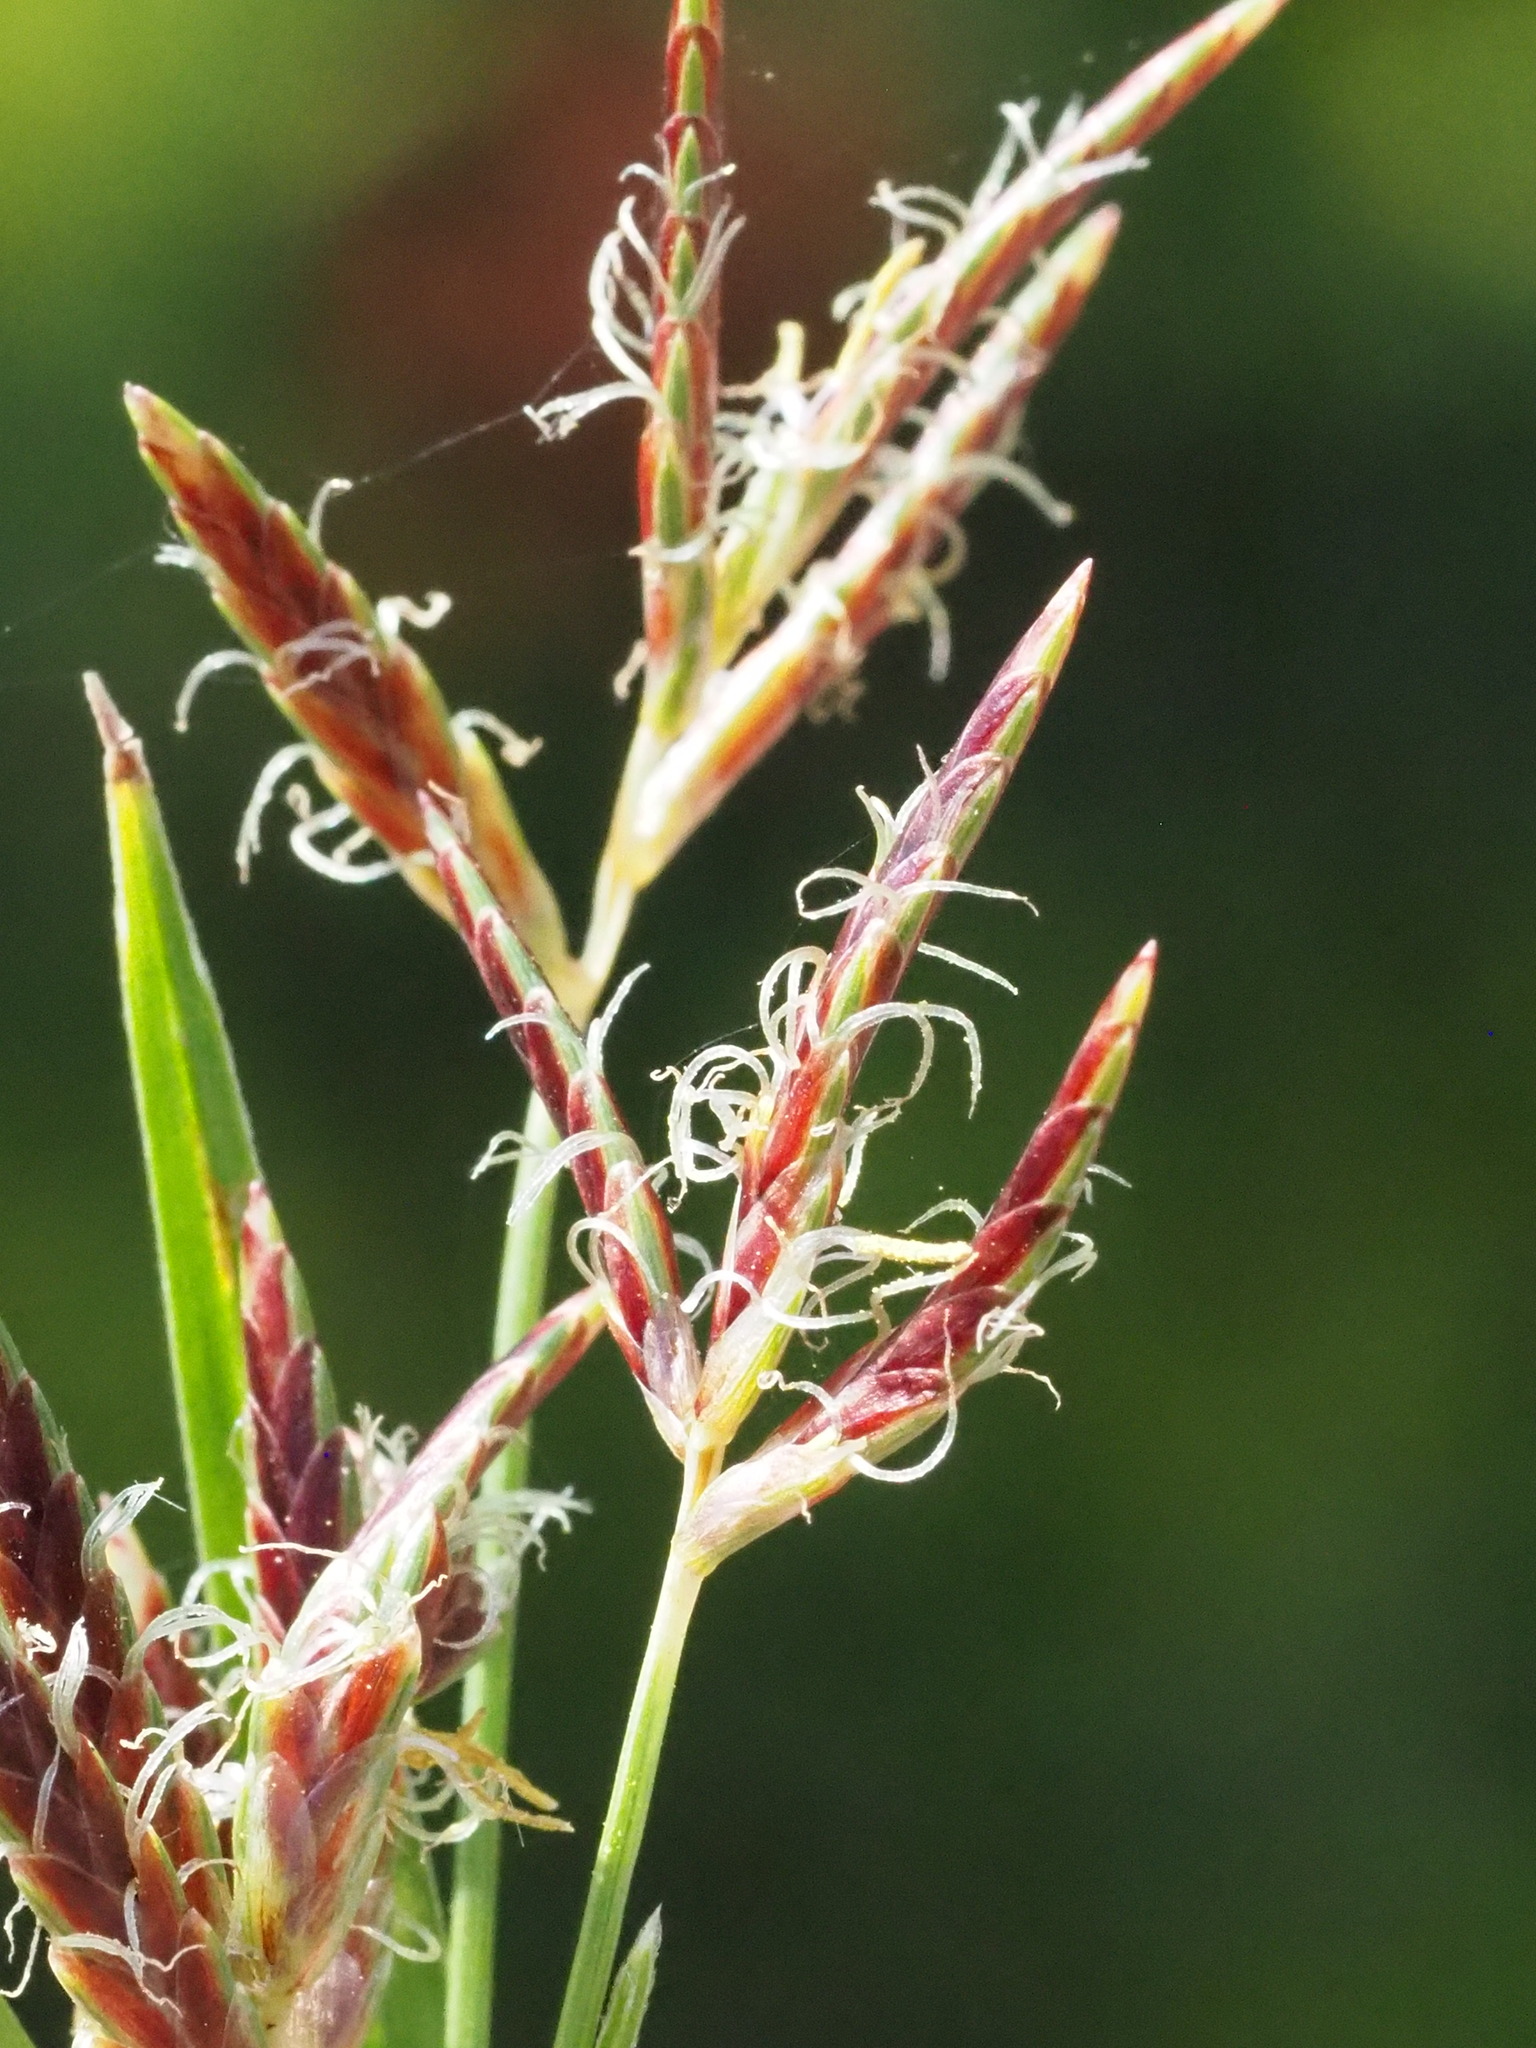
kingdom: Plantae
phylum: Tracheophyta
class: Liliopsida
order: Poales
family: Cyperaceae
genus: Cyperus
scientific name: Cyperus rotundus
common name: Nutgrass
